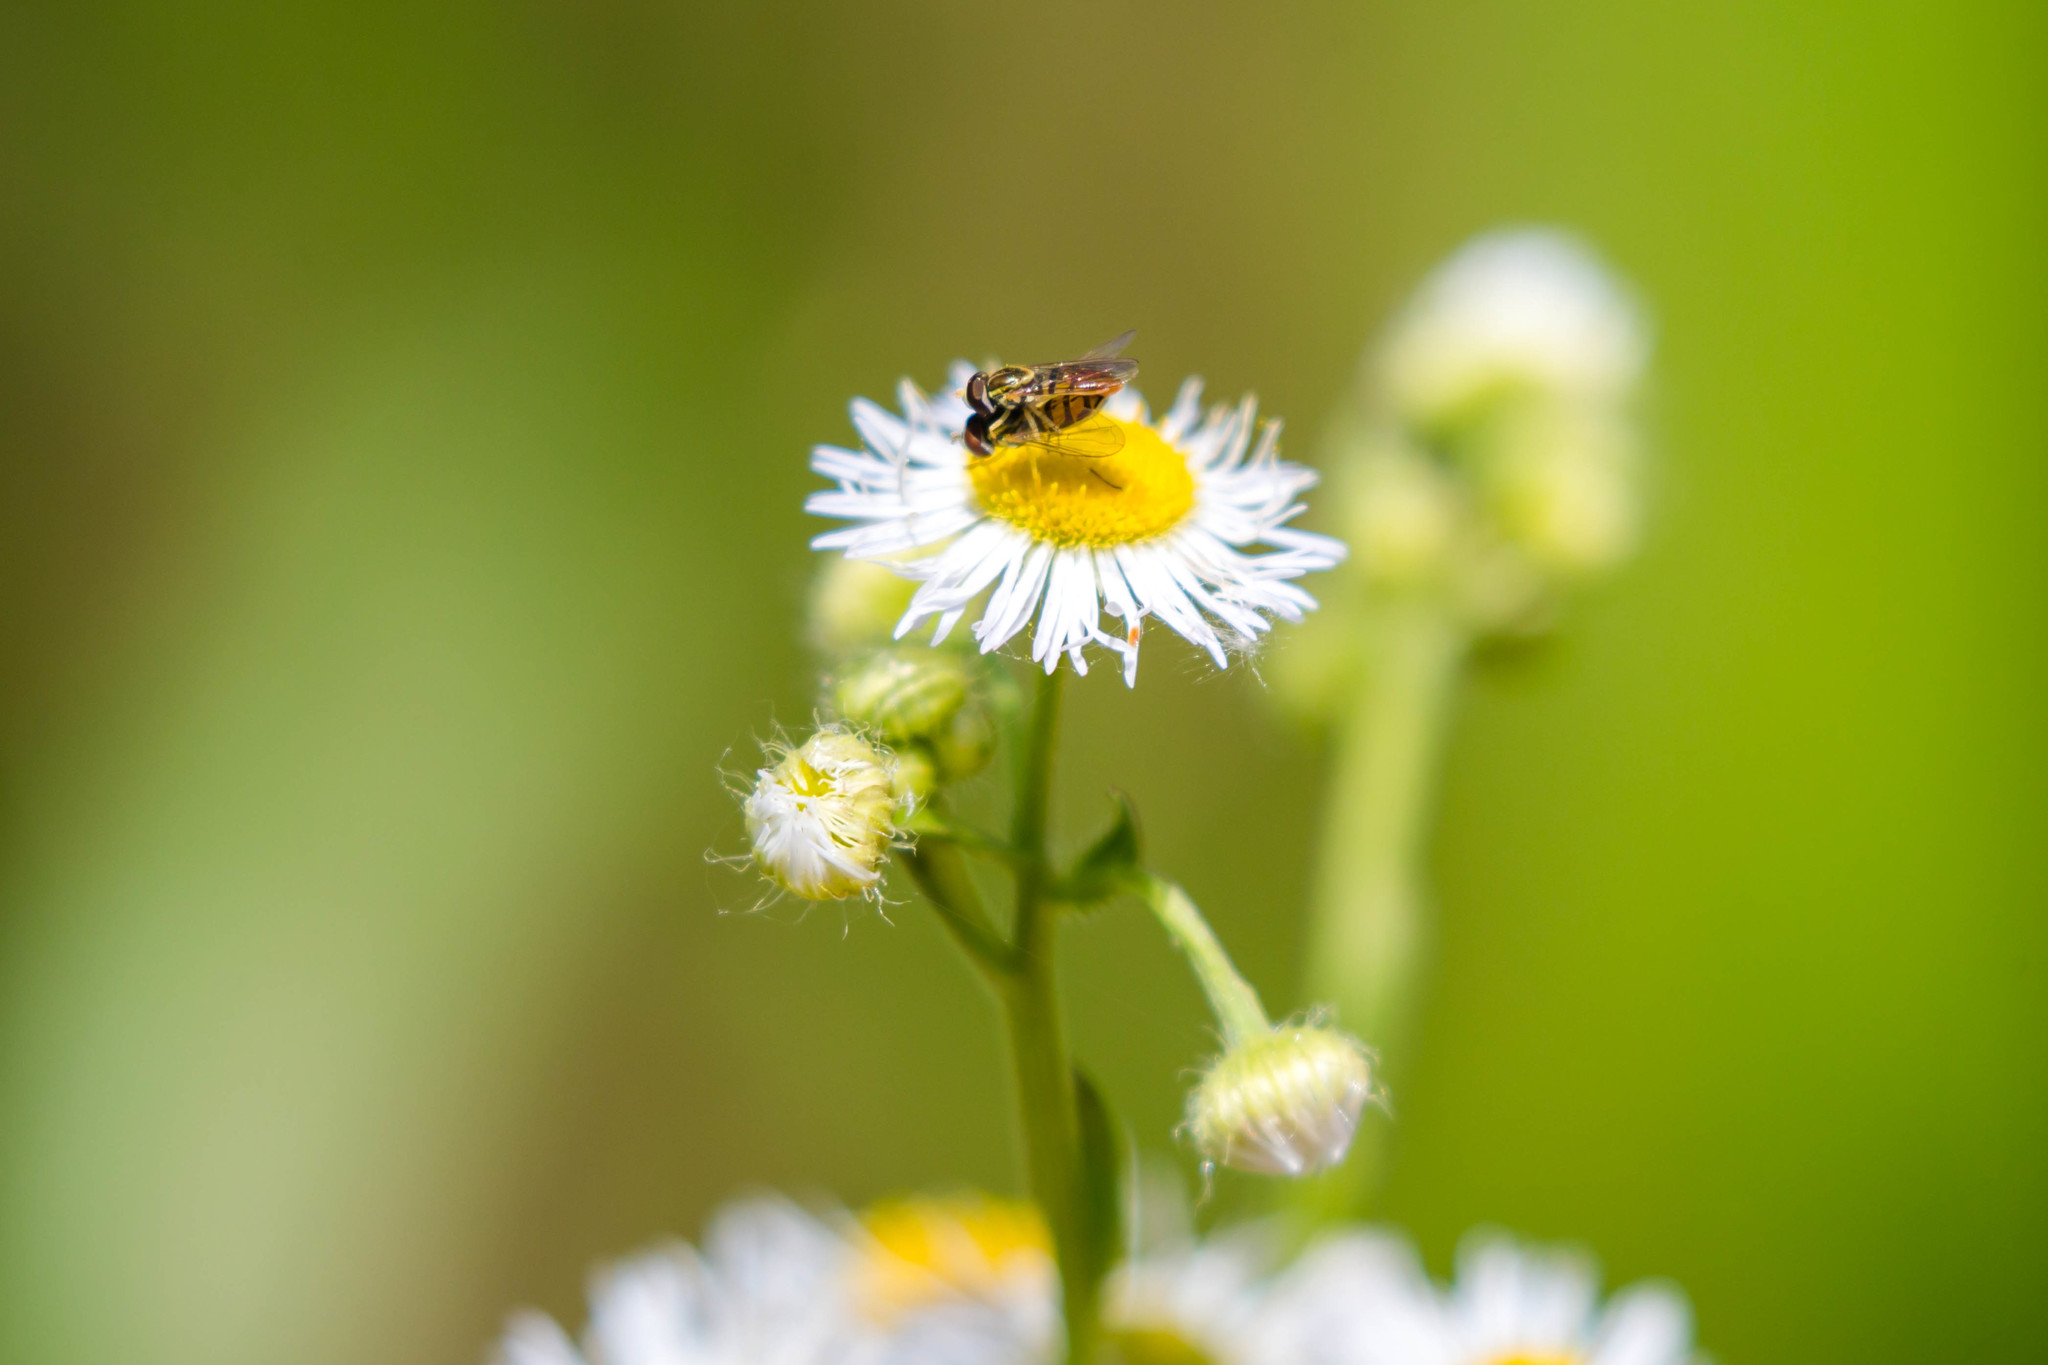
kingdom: Animalia
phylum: Arthropoda
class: Insecta
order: Diptera
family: Syrphidae
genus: Toxomerus
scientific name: Toxomerus marginatus
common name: Syrphid fly
